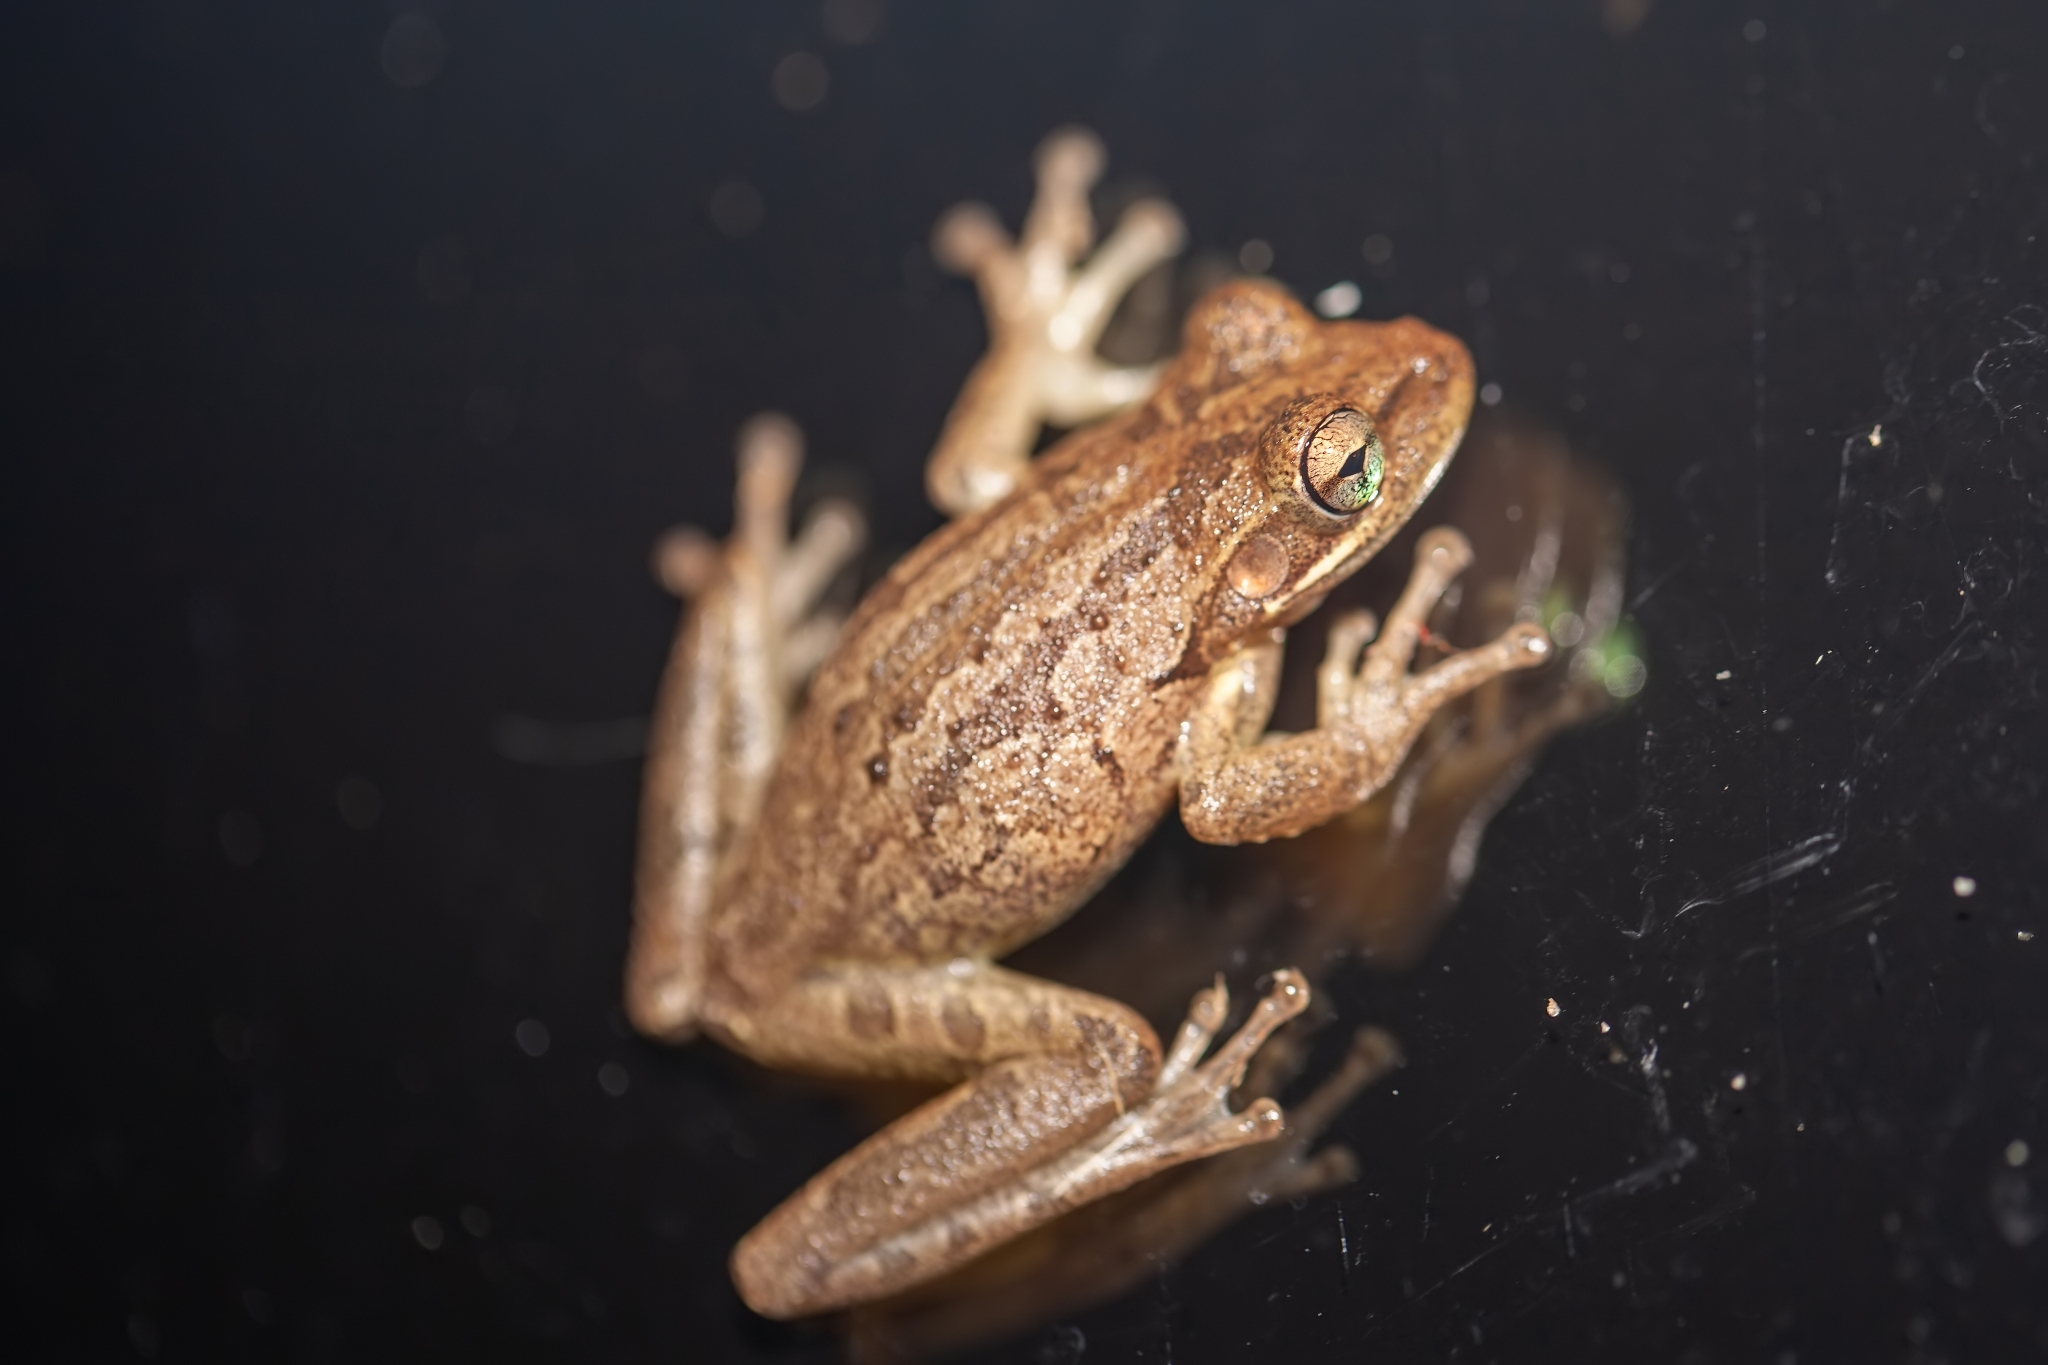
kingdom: Animalia
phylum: Chordata
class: Amphibia
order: Anura
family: Hylidae
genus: Osteopilus
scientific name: Osteopilus septentrionalis
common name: Cuban treefrog
